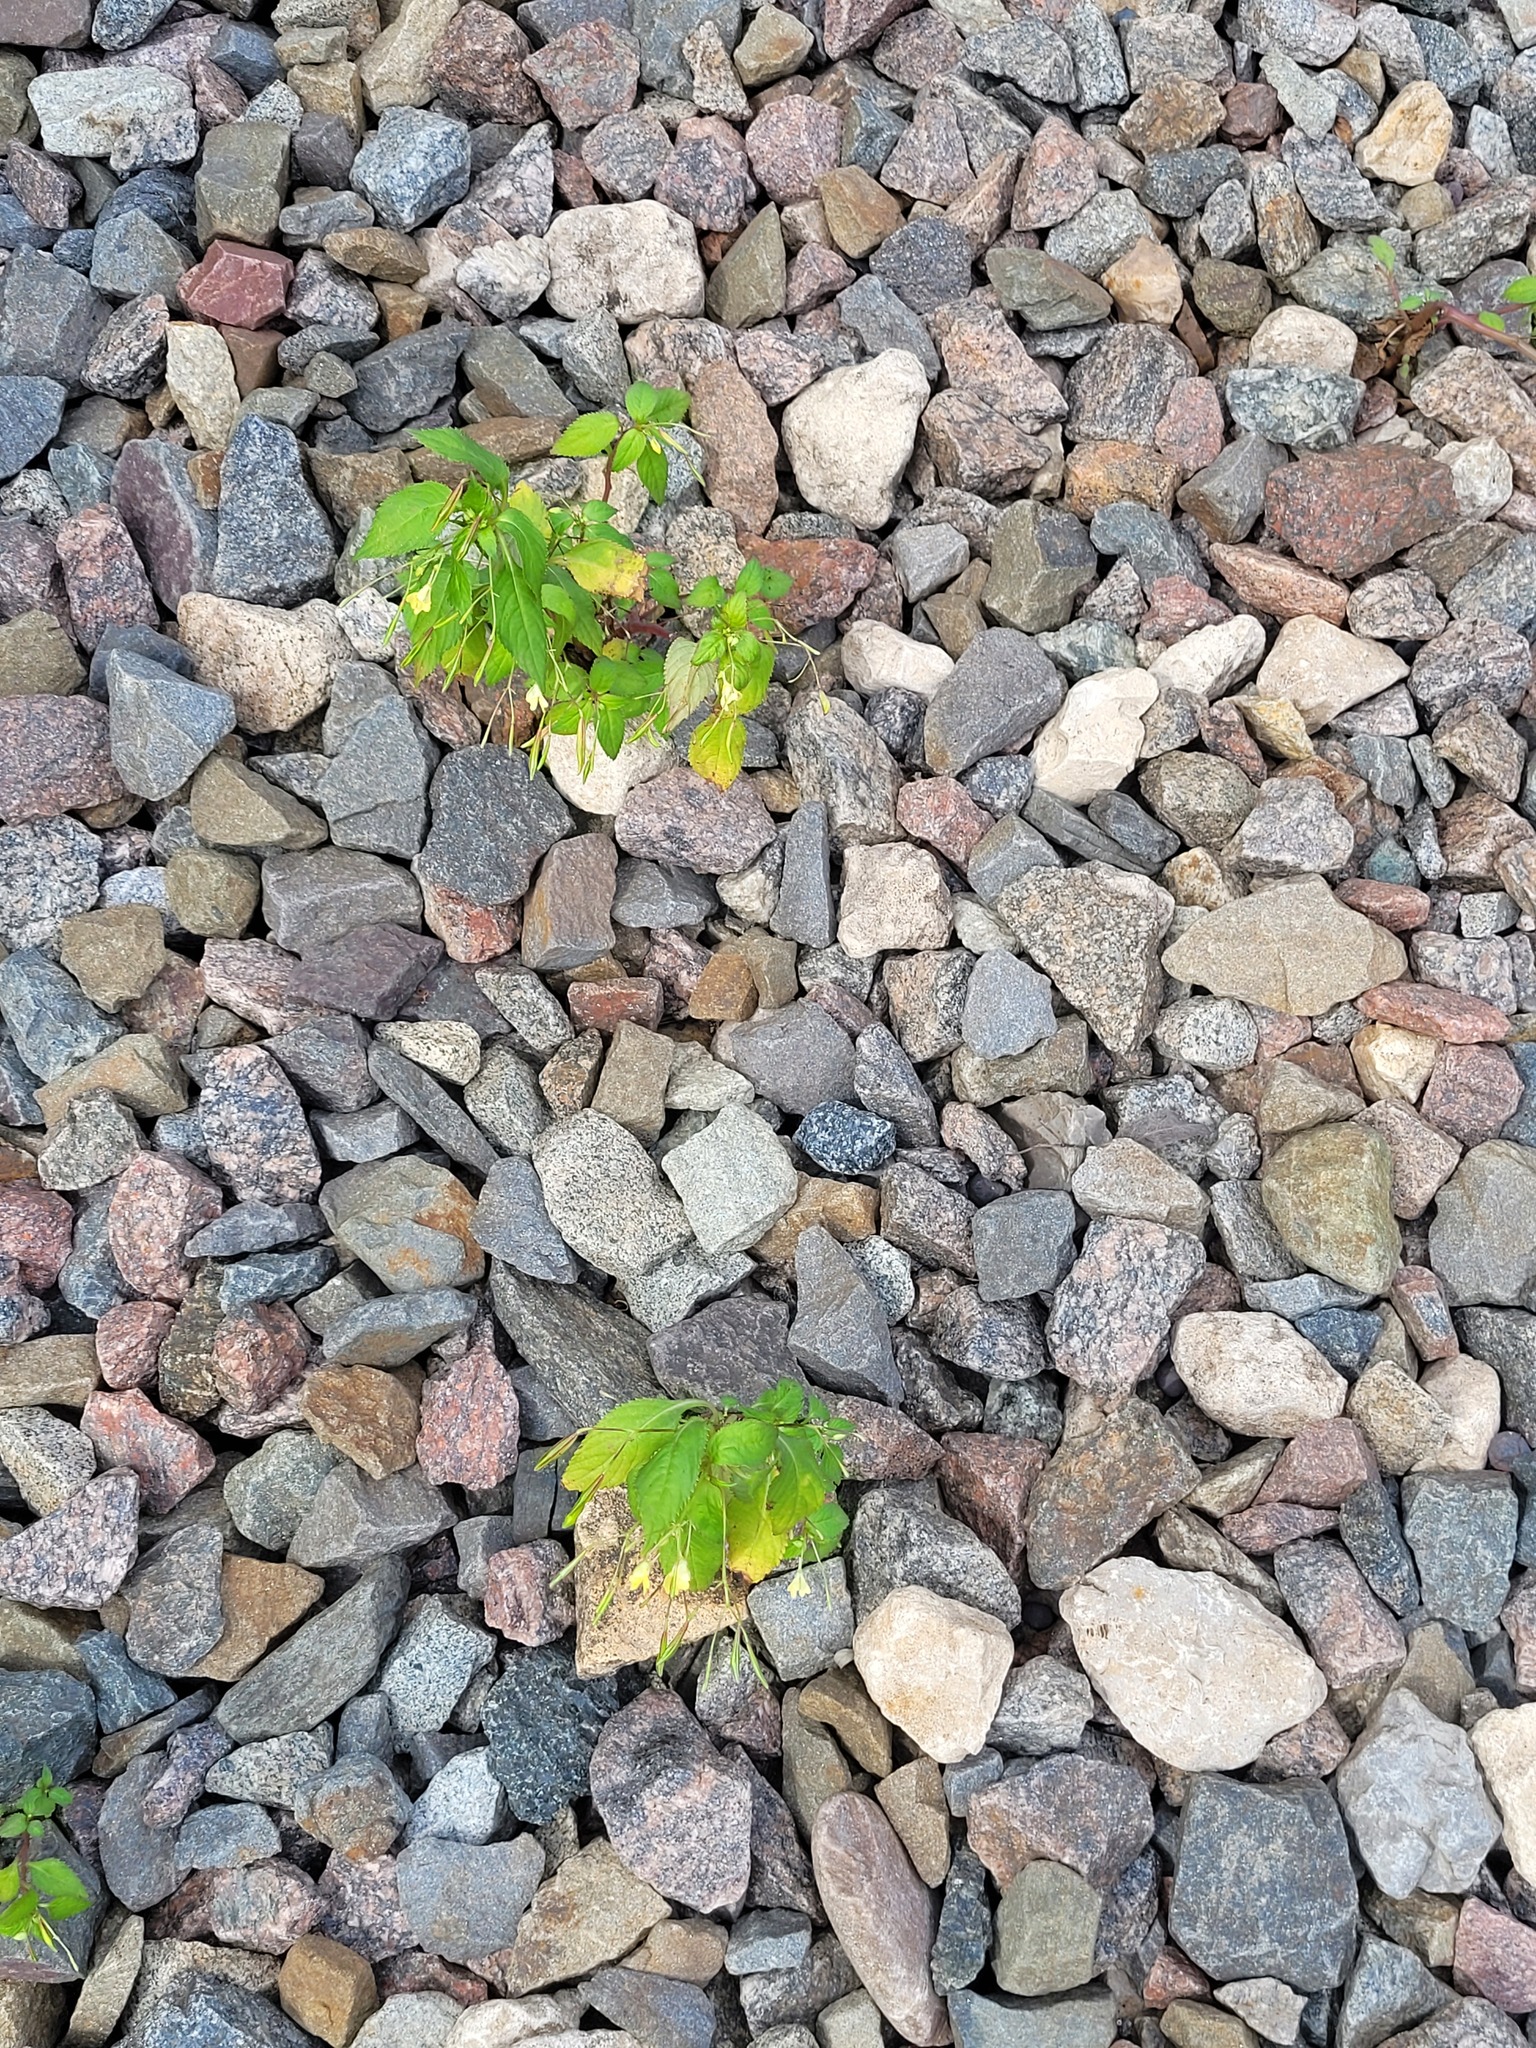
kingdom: Plantae
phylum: Tracheophyta
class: Magnoliopsida
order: Ericales
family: Balsaminaceae
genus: Impatiens
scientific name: Impatiens parviflora
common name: Small balsam
